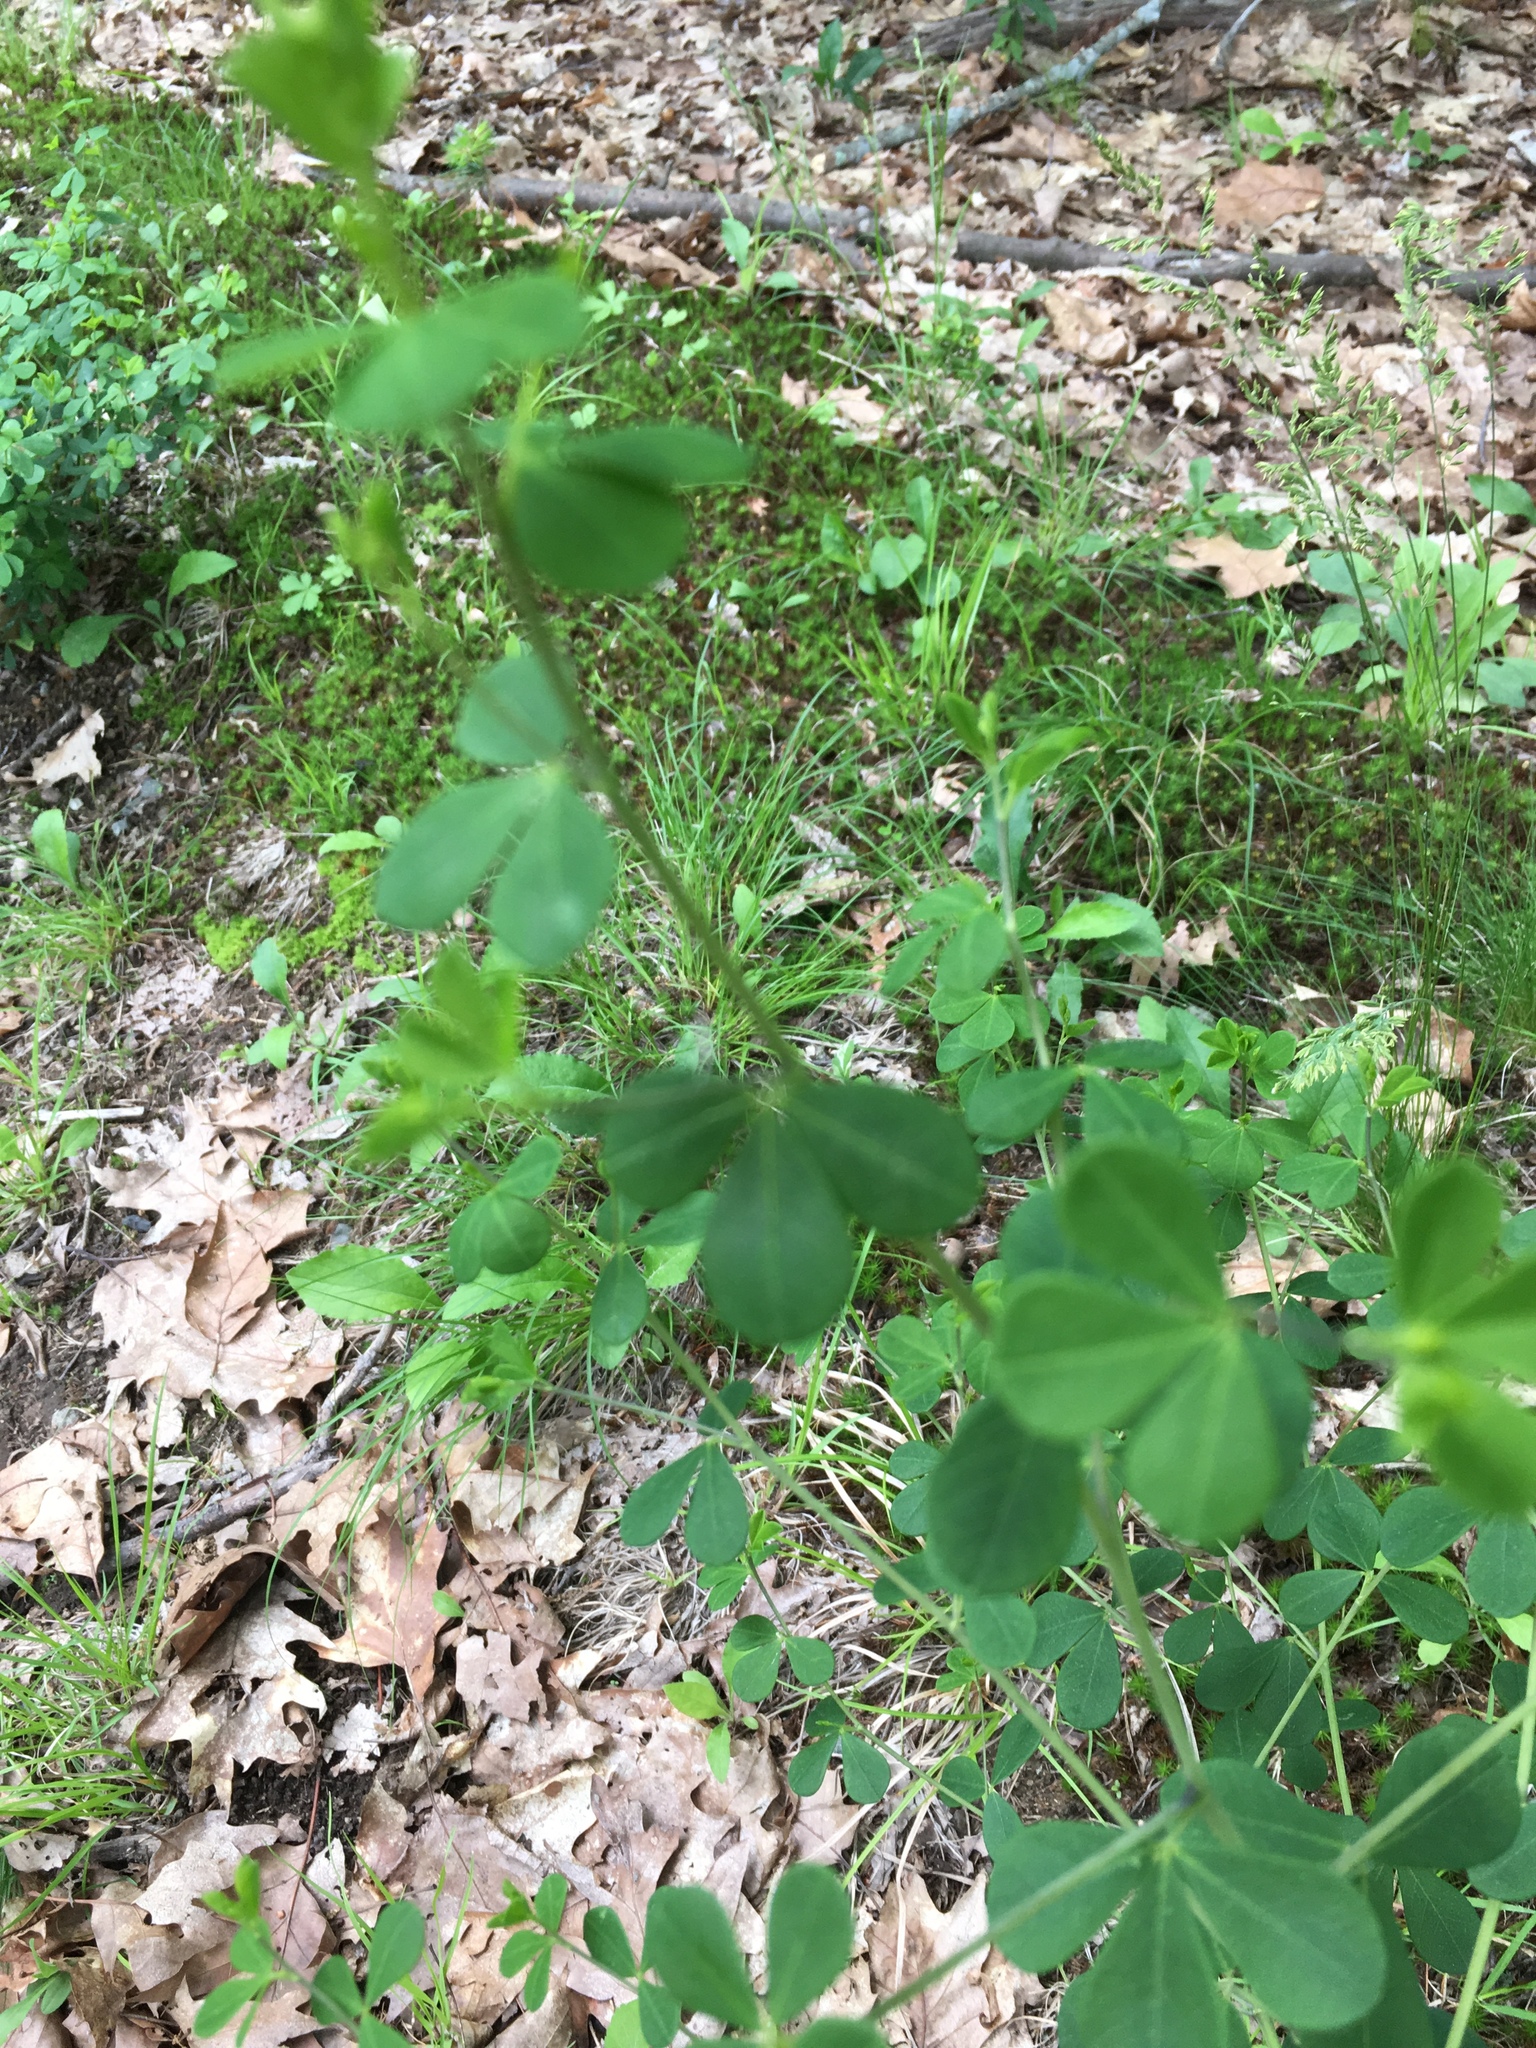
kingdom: Plantae
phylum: Tracheophyta
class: Magnoliopsida
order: Fabales
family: Fabaceae
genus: Baptisia
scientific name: Baptisia tinctoria
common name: Wild indigo
